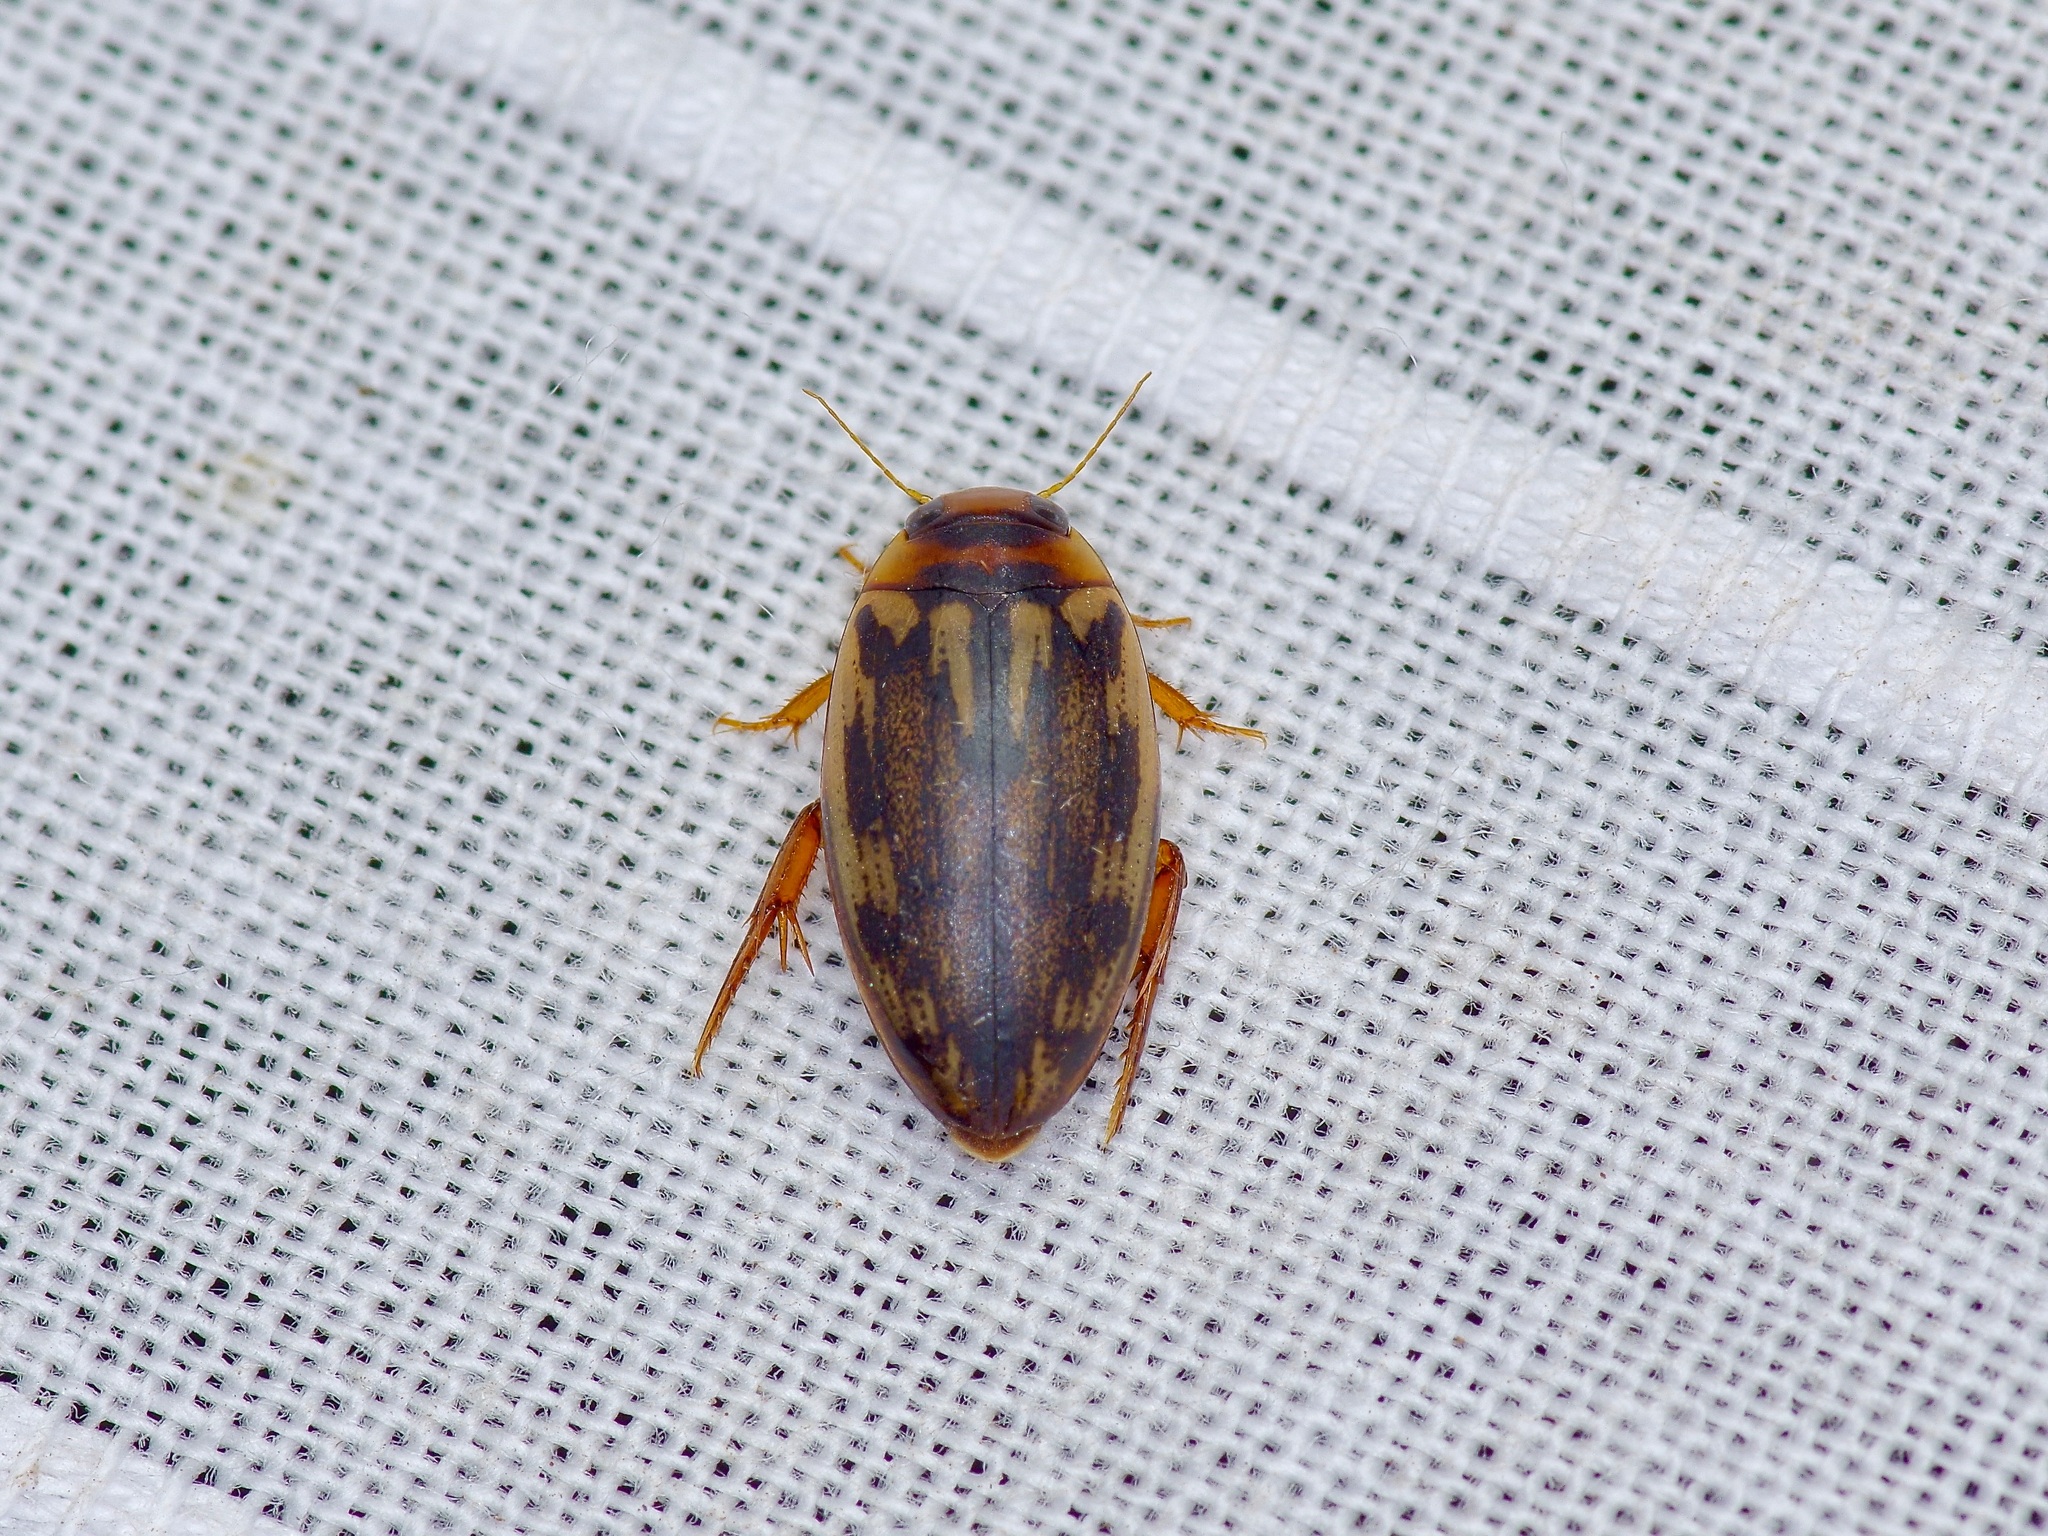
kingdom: Animalia
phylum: Arthropoda
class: Insecta
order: Coleoptera
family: Dytiscidae
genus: Coptotomus
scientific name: Coptotomus
